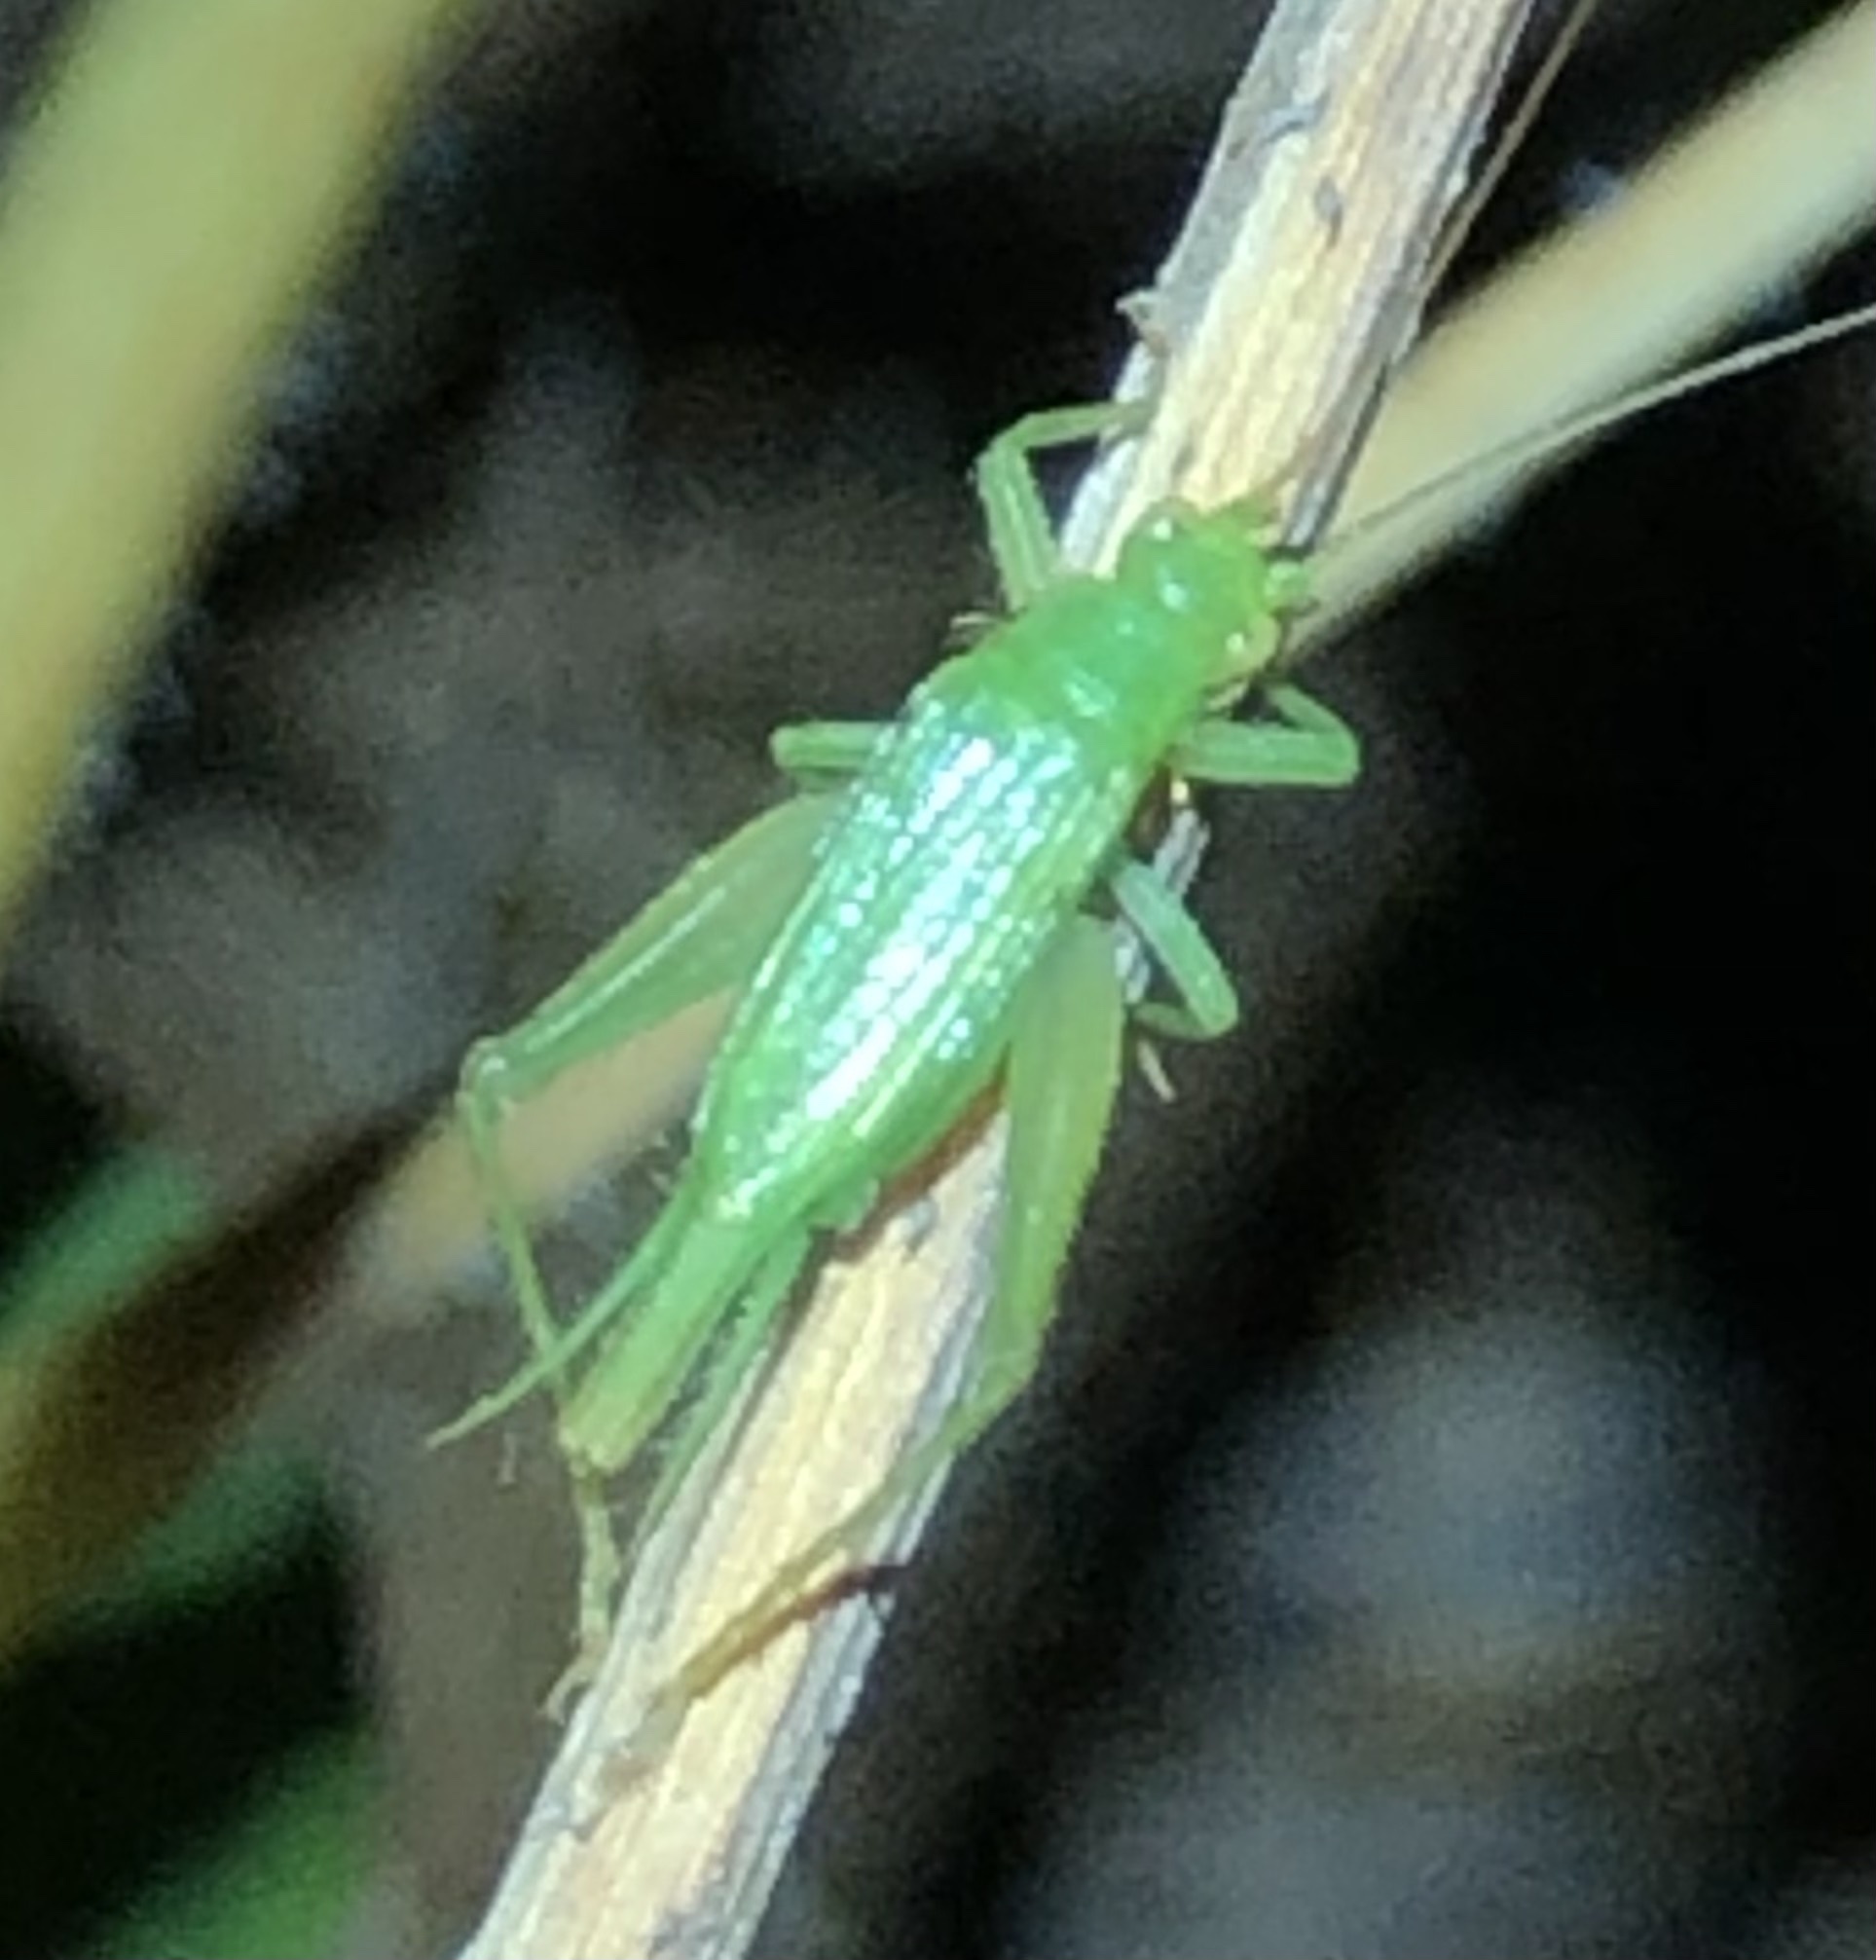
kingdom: Animalia
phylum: Arthropoda
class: Insecta
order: Orthoptera
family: Trigonidiidae
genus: Cyrtoxipha
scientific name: Cyrtoxipha columbiana
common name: Columbian trig
